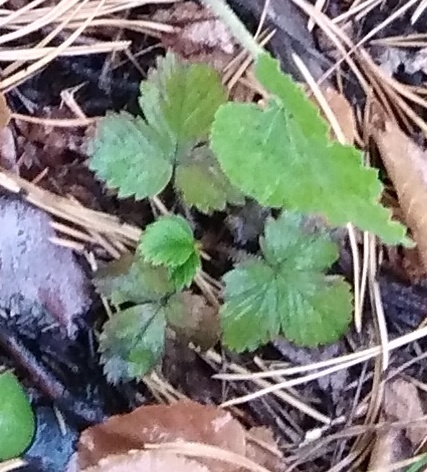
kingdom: Plantae
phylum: Tracheophyta
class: Magnoliopsida
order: Rosales
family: Rosaceae
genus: Fragaria
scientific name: Fragaria vesca
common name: Wild strawberry
